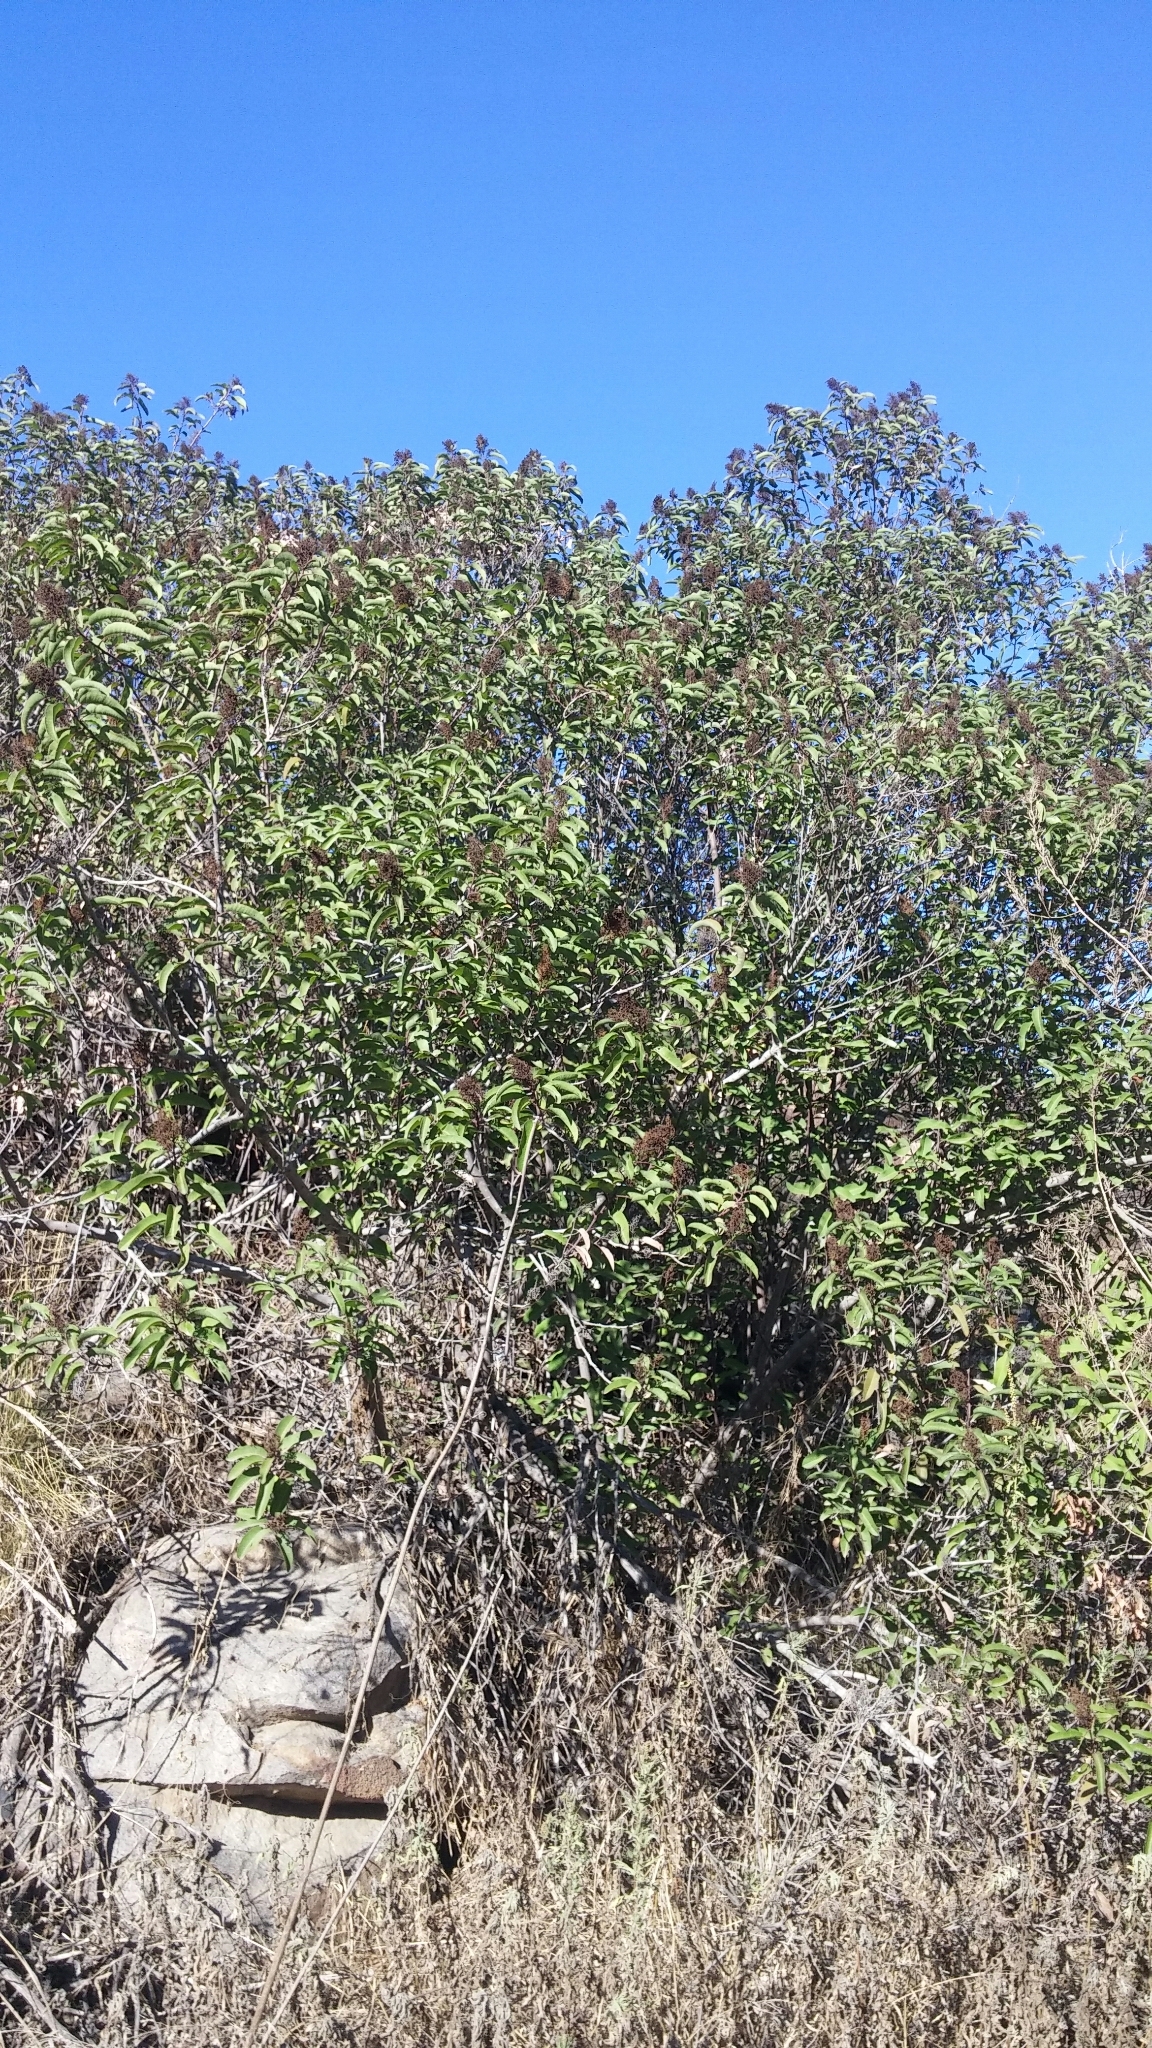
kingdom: Plantae
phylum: Tracheophyta
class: Magnoliopsida
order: Sapindales
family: Anacardiaceae
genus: Malosma
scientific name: Malosma laurina
